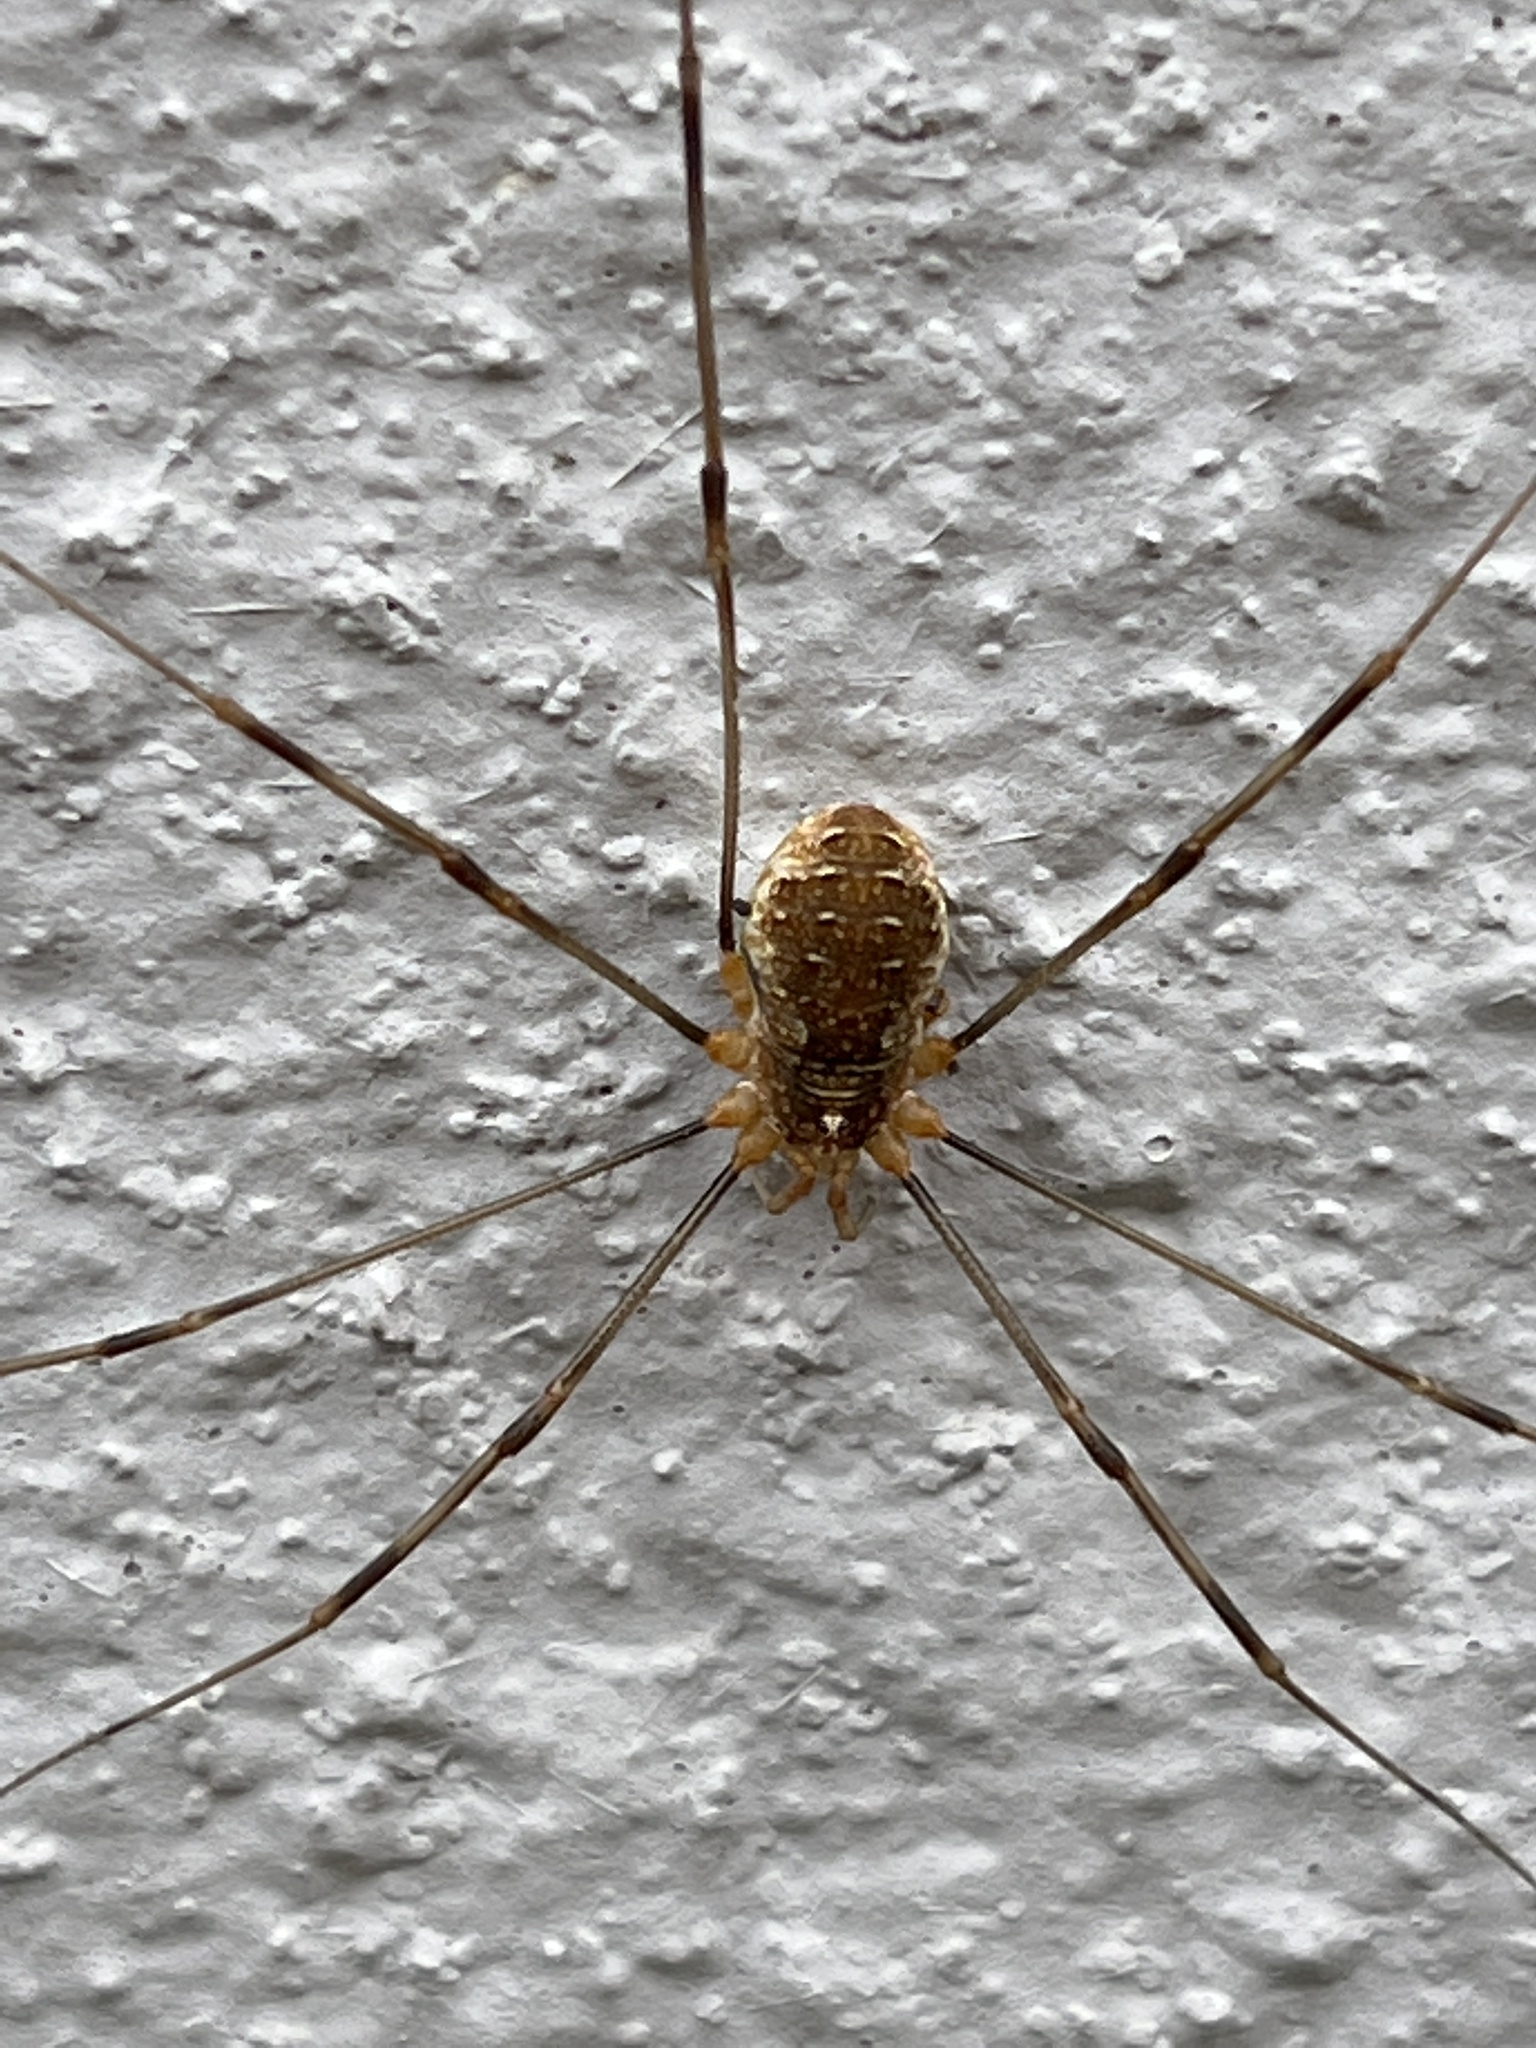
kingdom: Animalia
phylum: Arthropoda
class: Arachnida
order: Opiliones
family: Phalangiidae
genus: Opilio
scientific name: Opilio canestrinii
